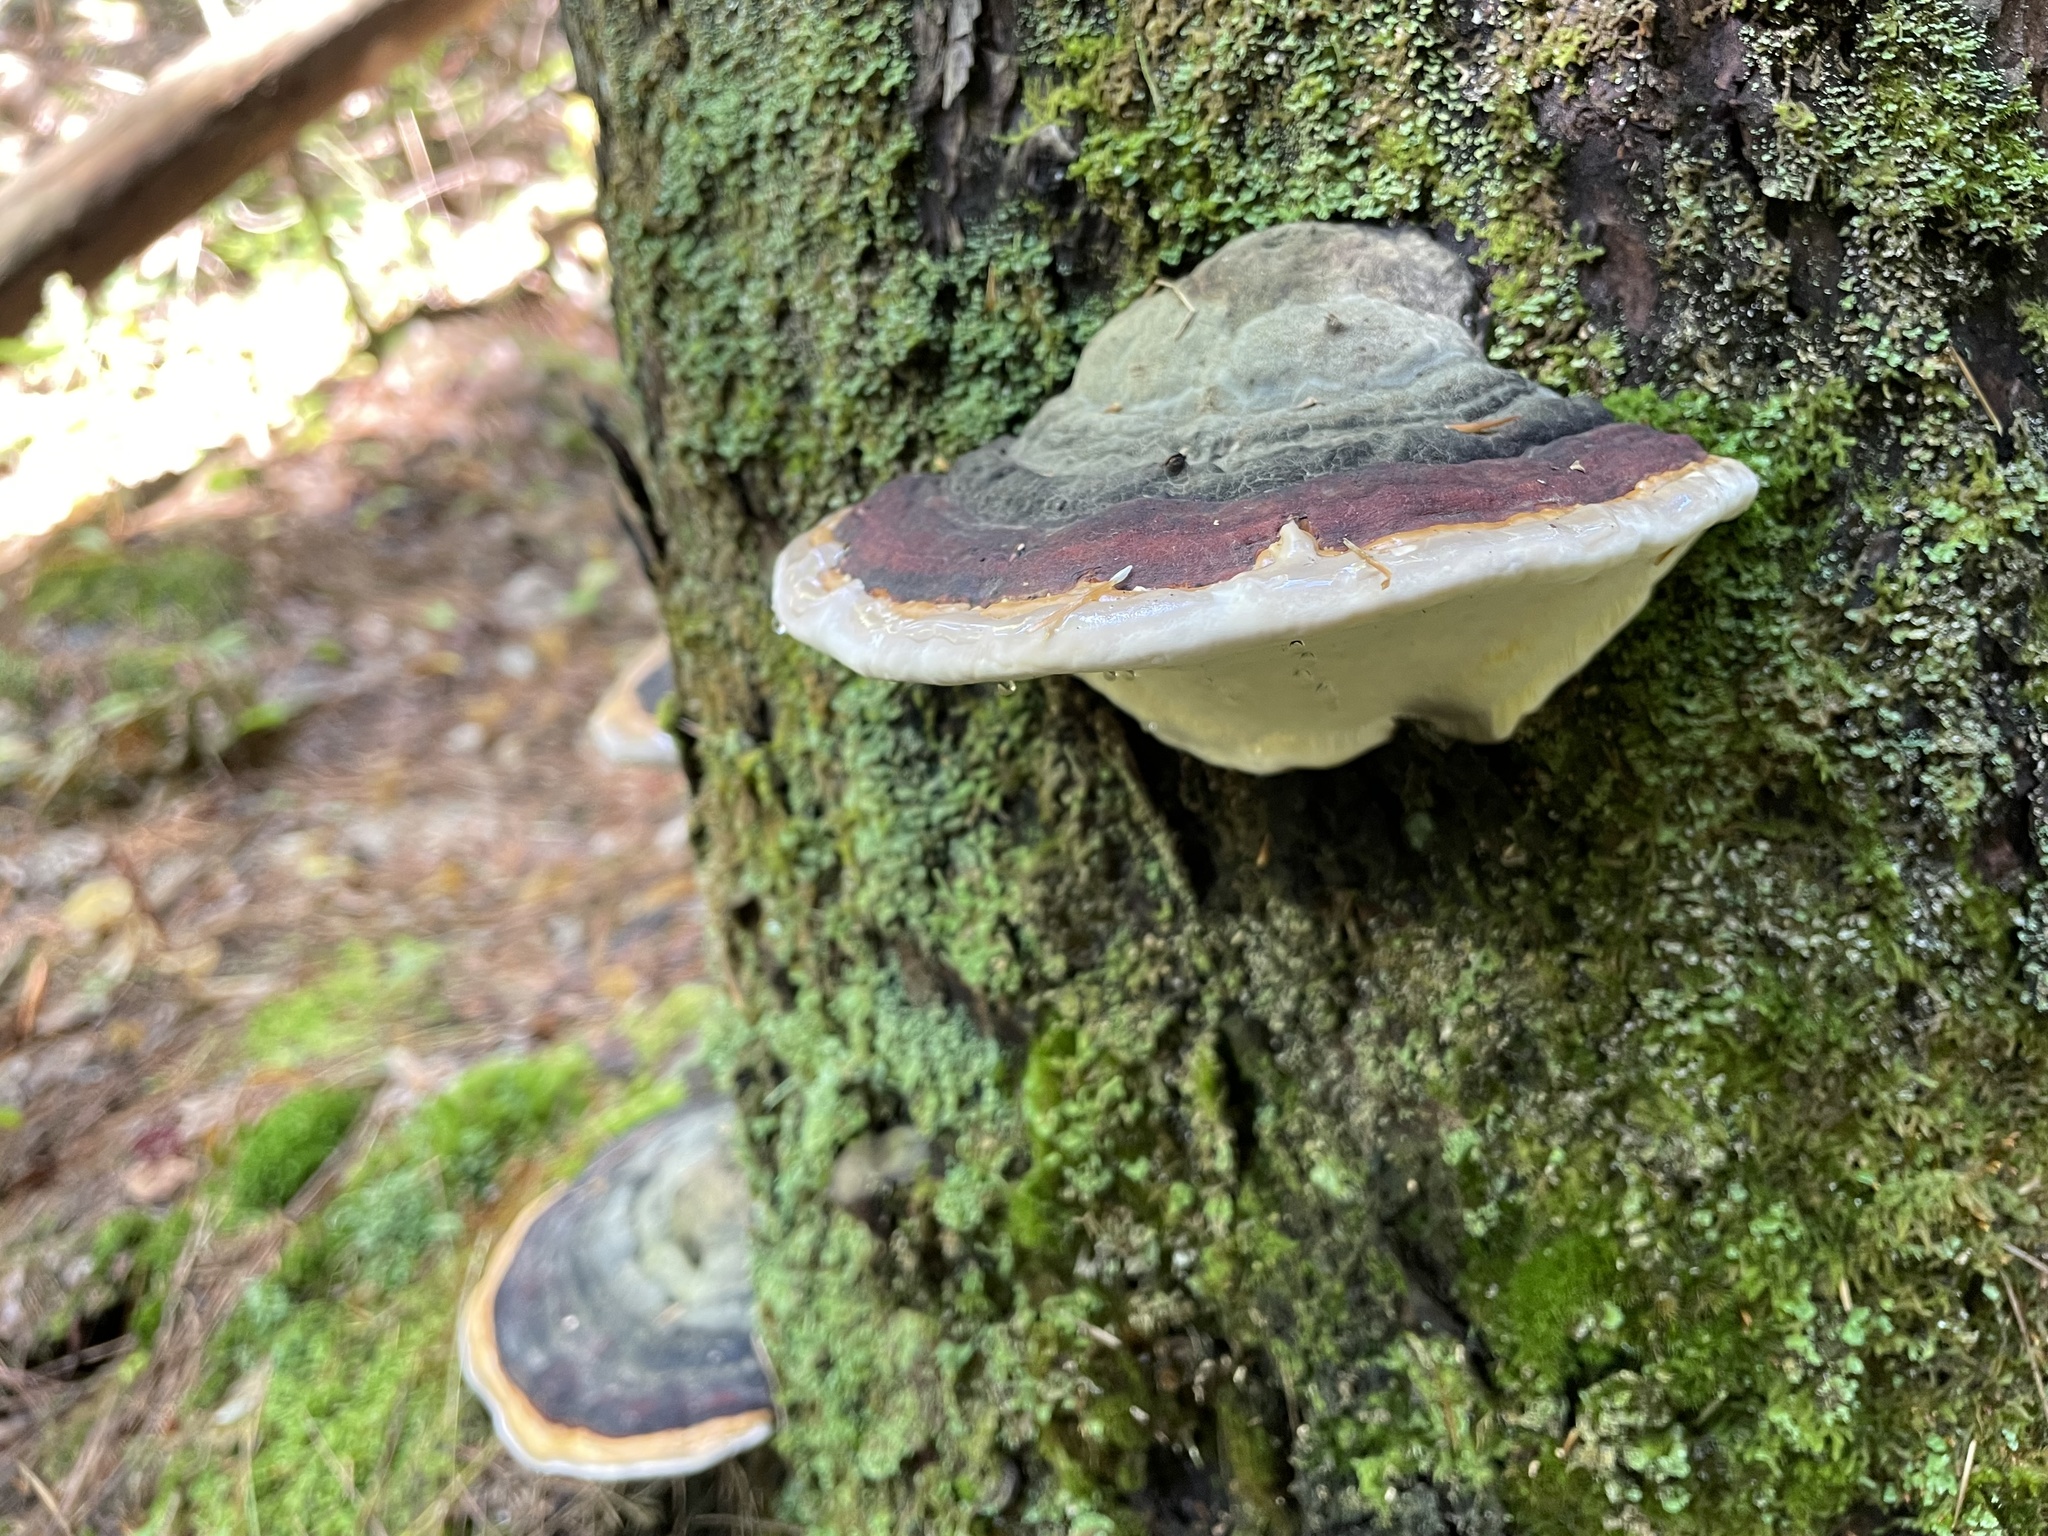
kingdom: Fungi
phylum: Basidiomycota
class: Agaricomycetes
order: Polyporales
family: Fomitopsidaceae
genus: Fomitopsis
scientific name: Fomitopsis mounceae
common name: Northern red belt
